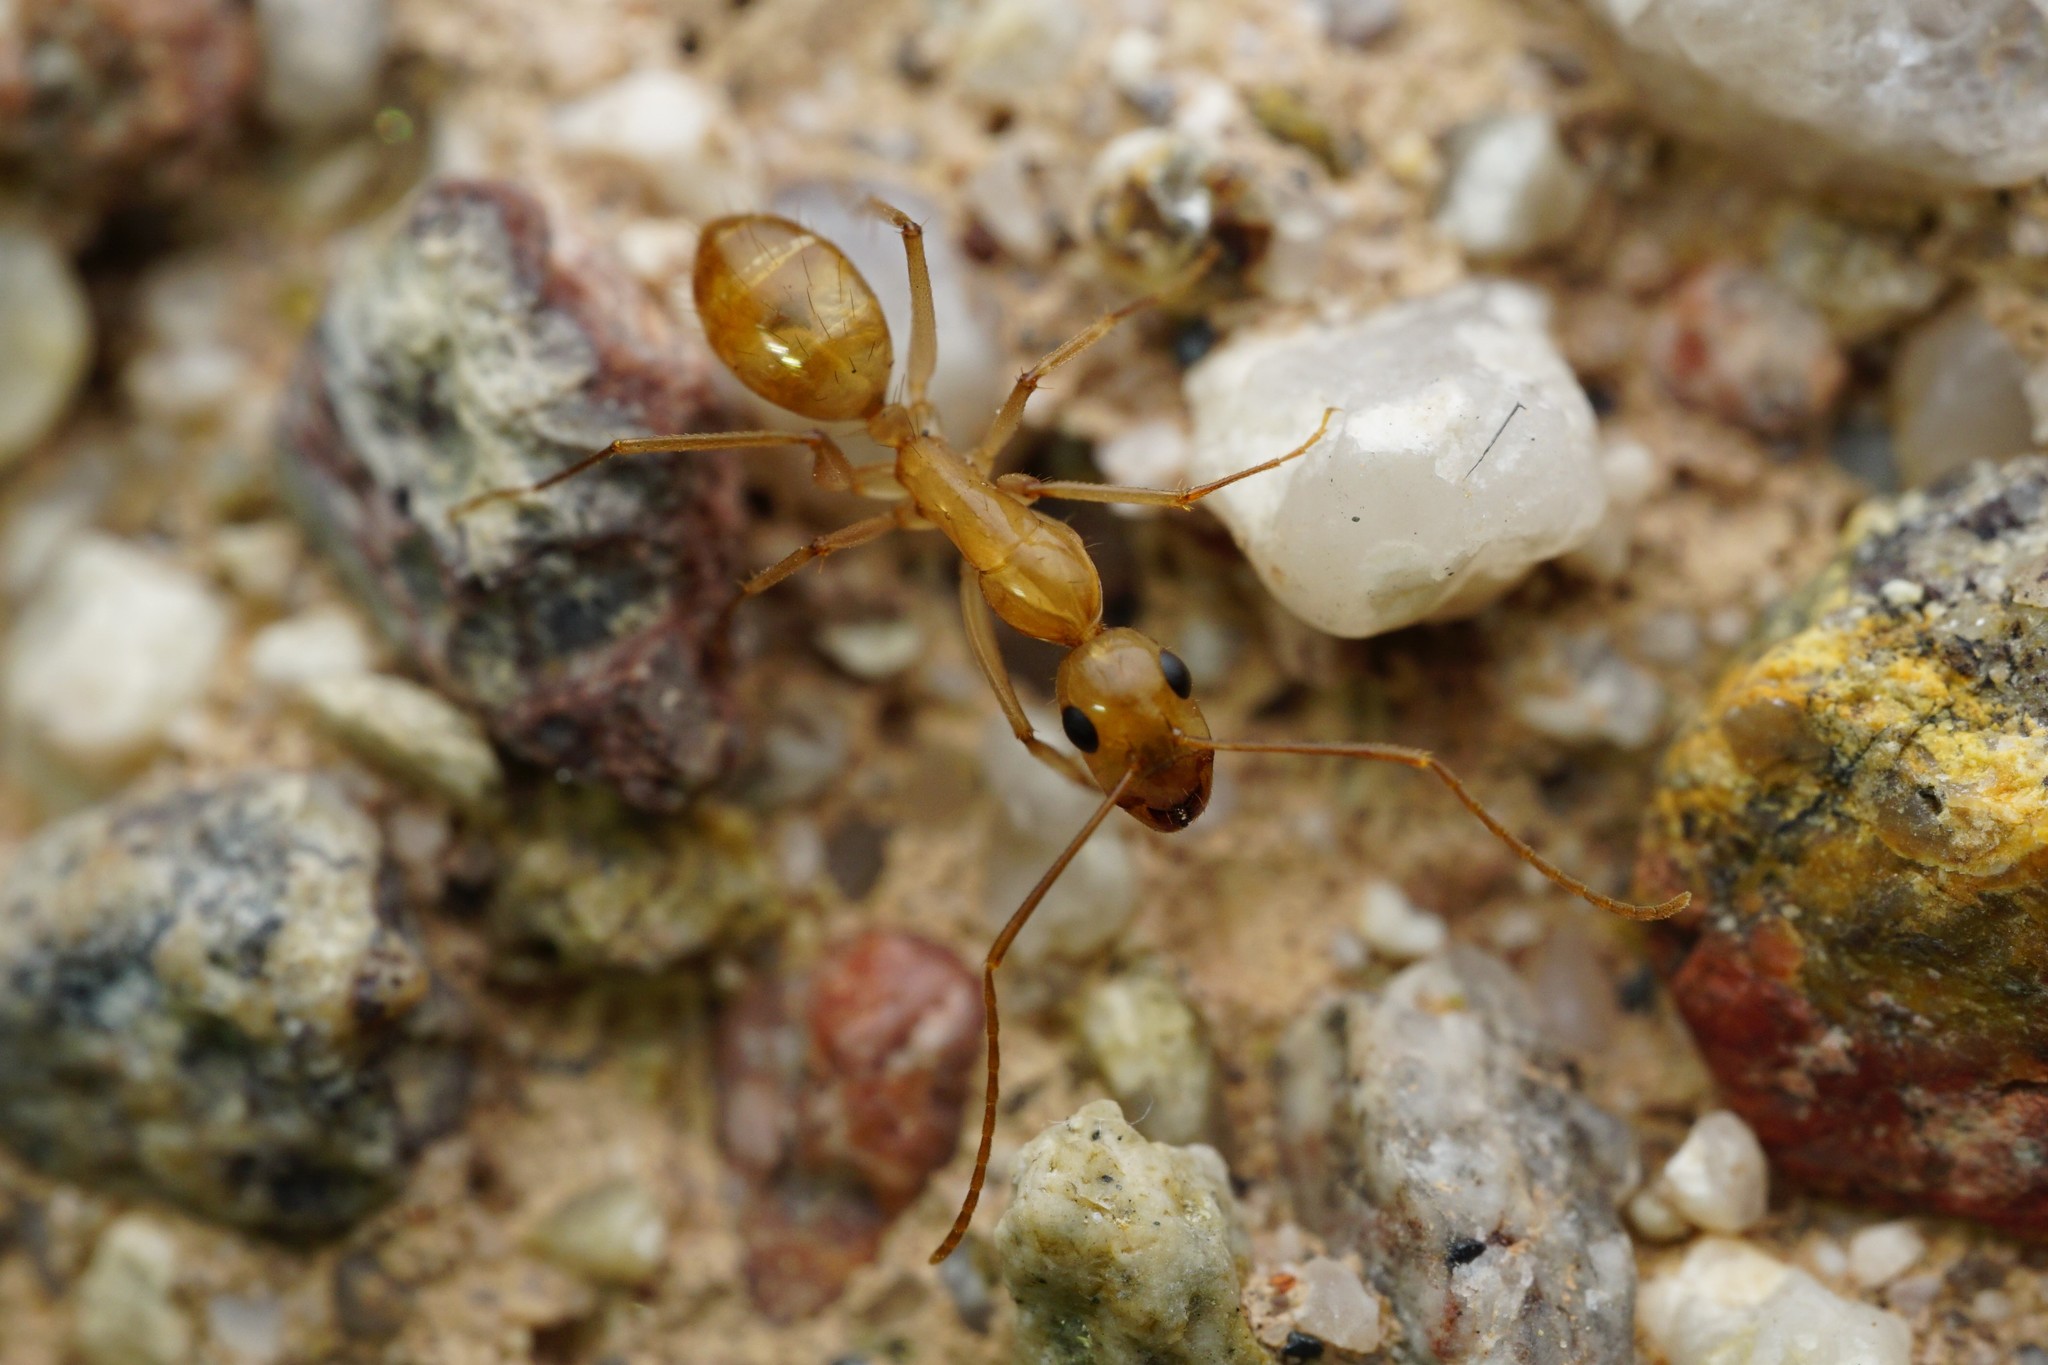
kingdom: Animalia
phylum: Arthropoda
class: Insecta
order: Hymenoptera
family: Formicidae
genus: Camponotus
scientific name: Camponotus fragilis
